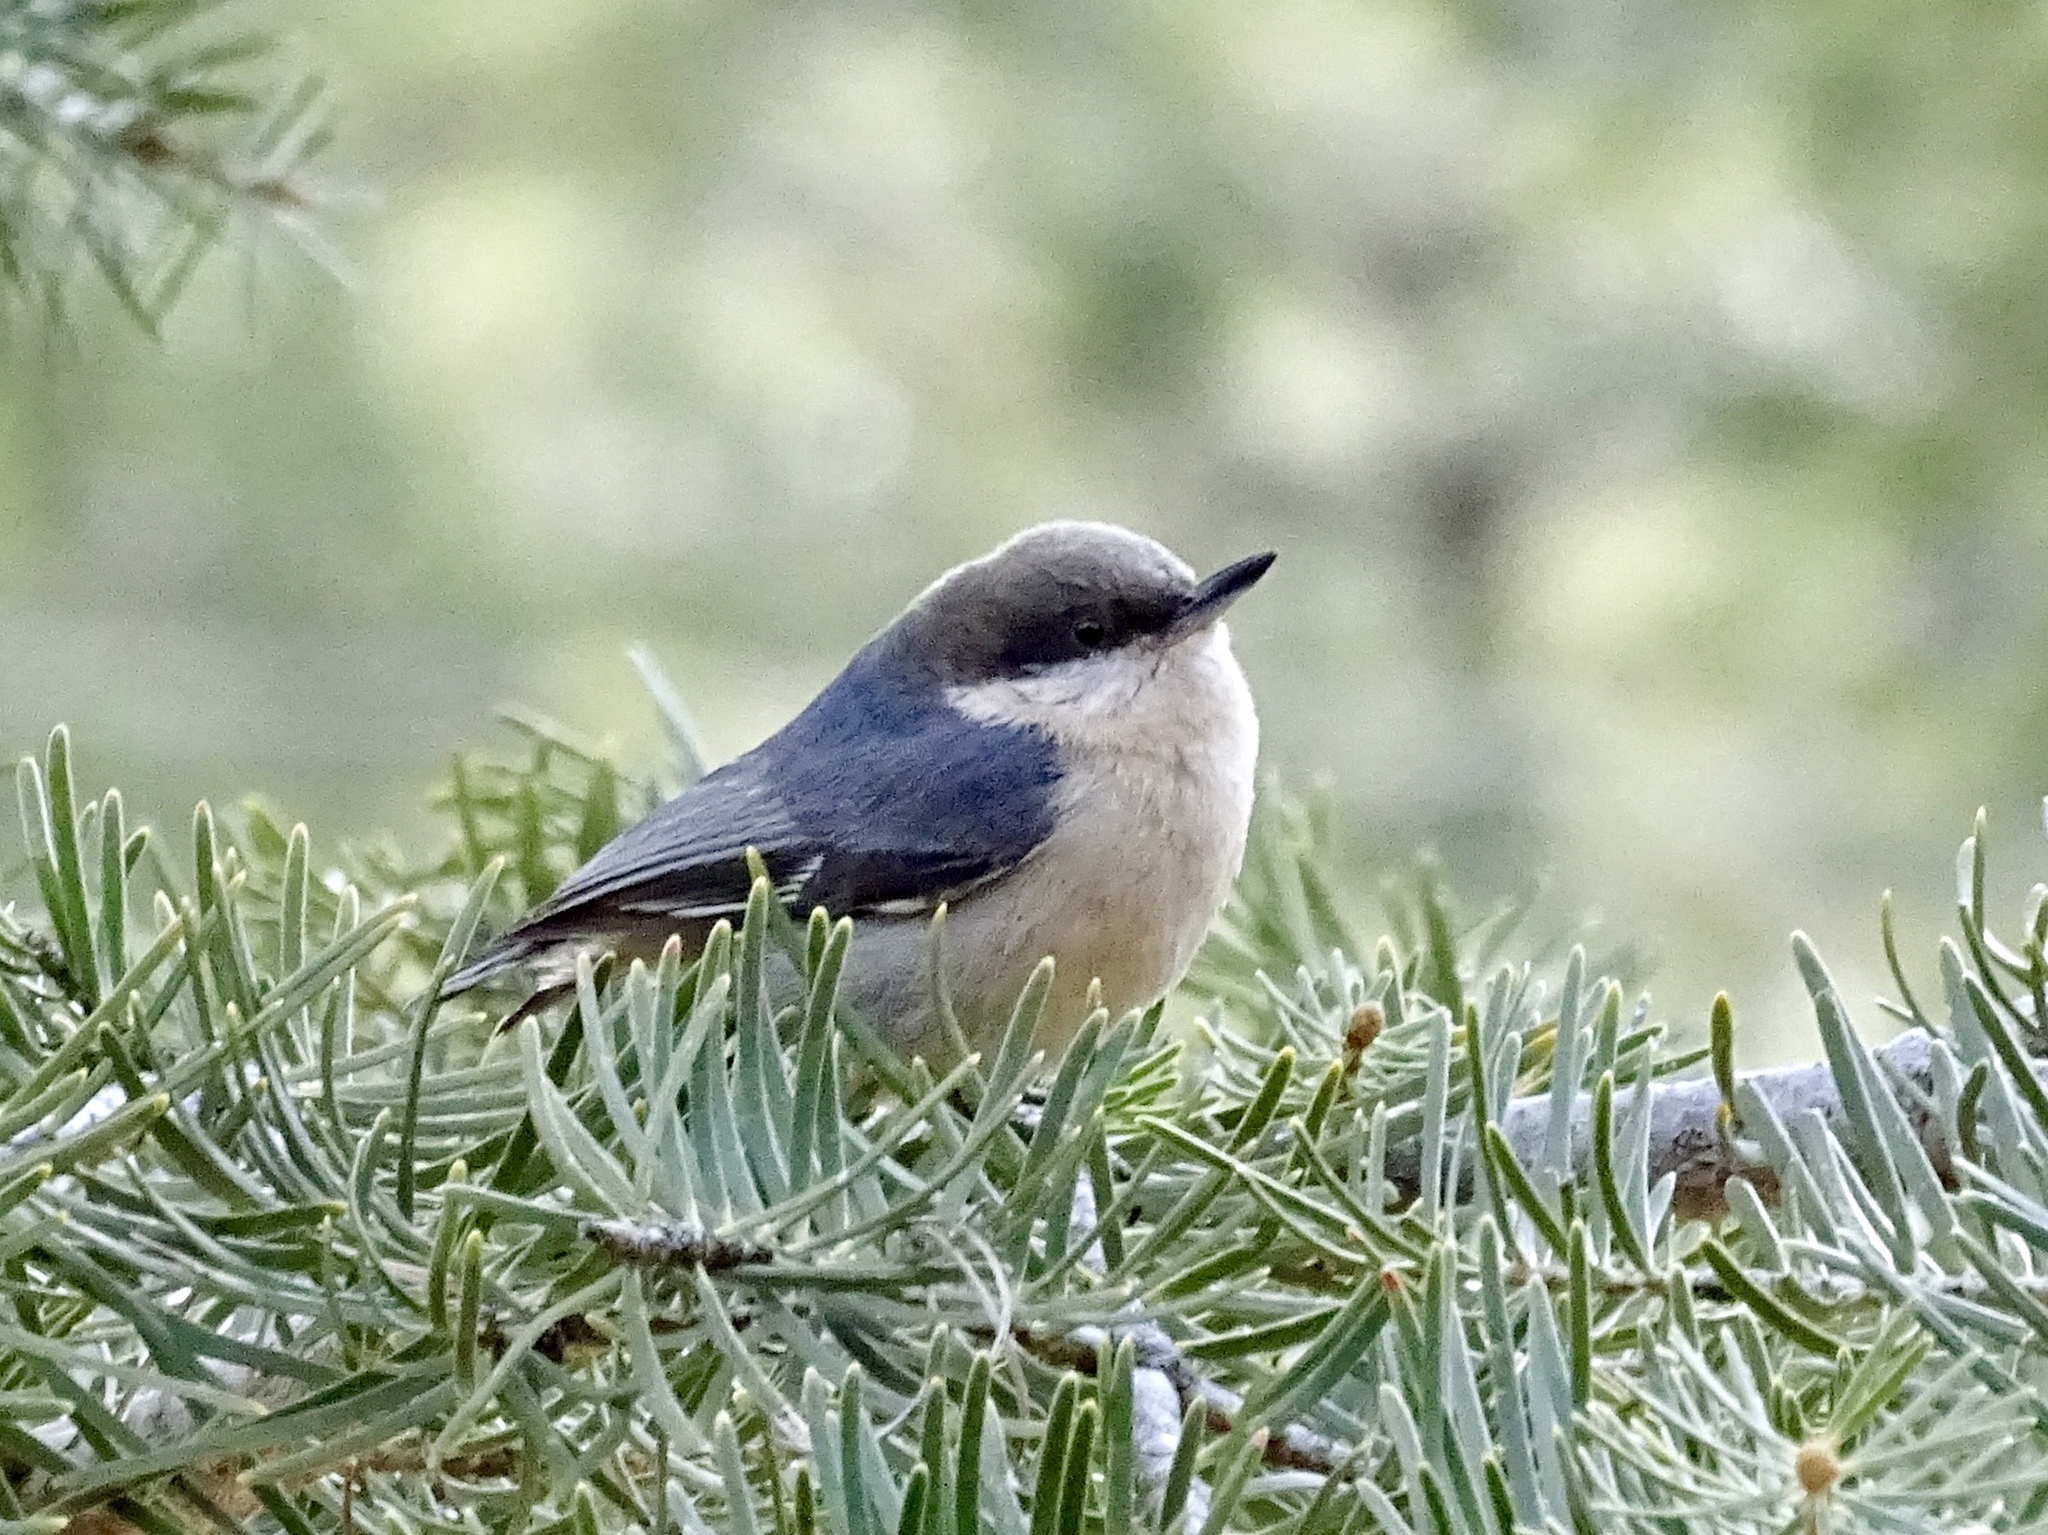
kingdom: Animalia
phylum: Chordata
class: Aves
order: Passeriformes
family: Sittidae
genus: Sitta
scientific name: Sitta pygmaea
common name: Pygmy nuthatch
